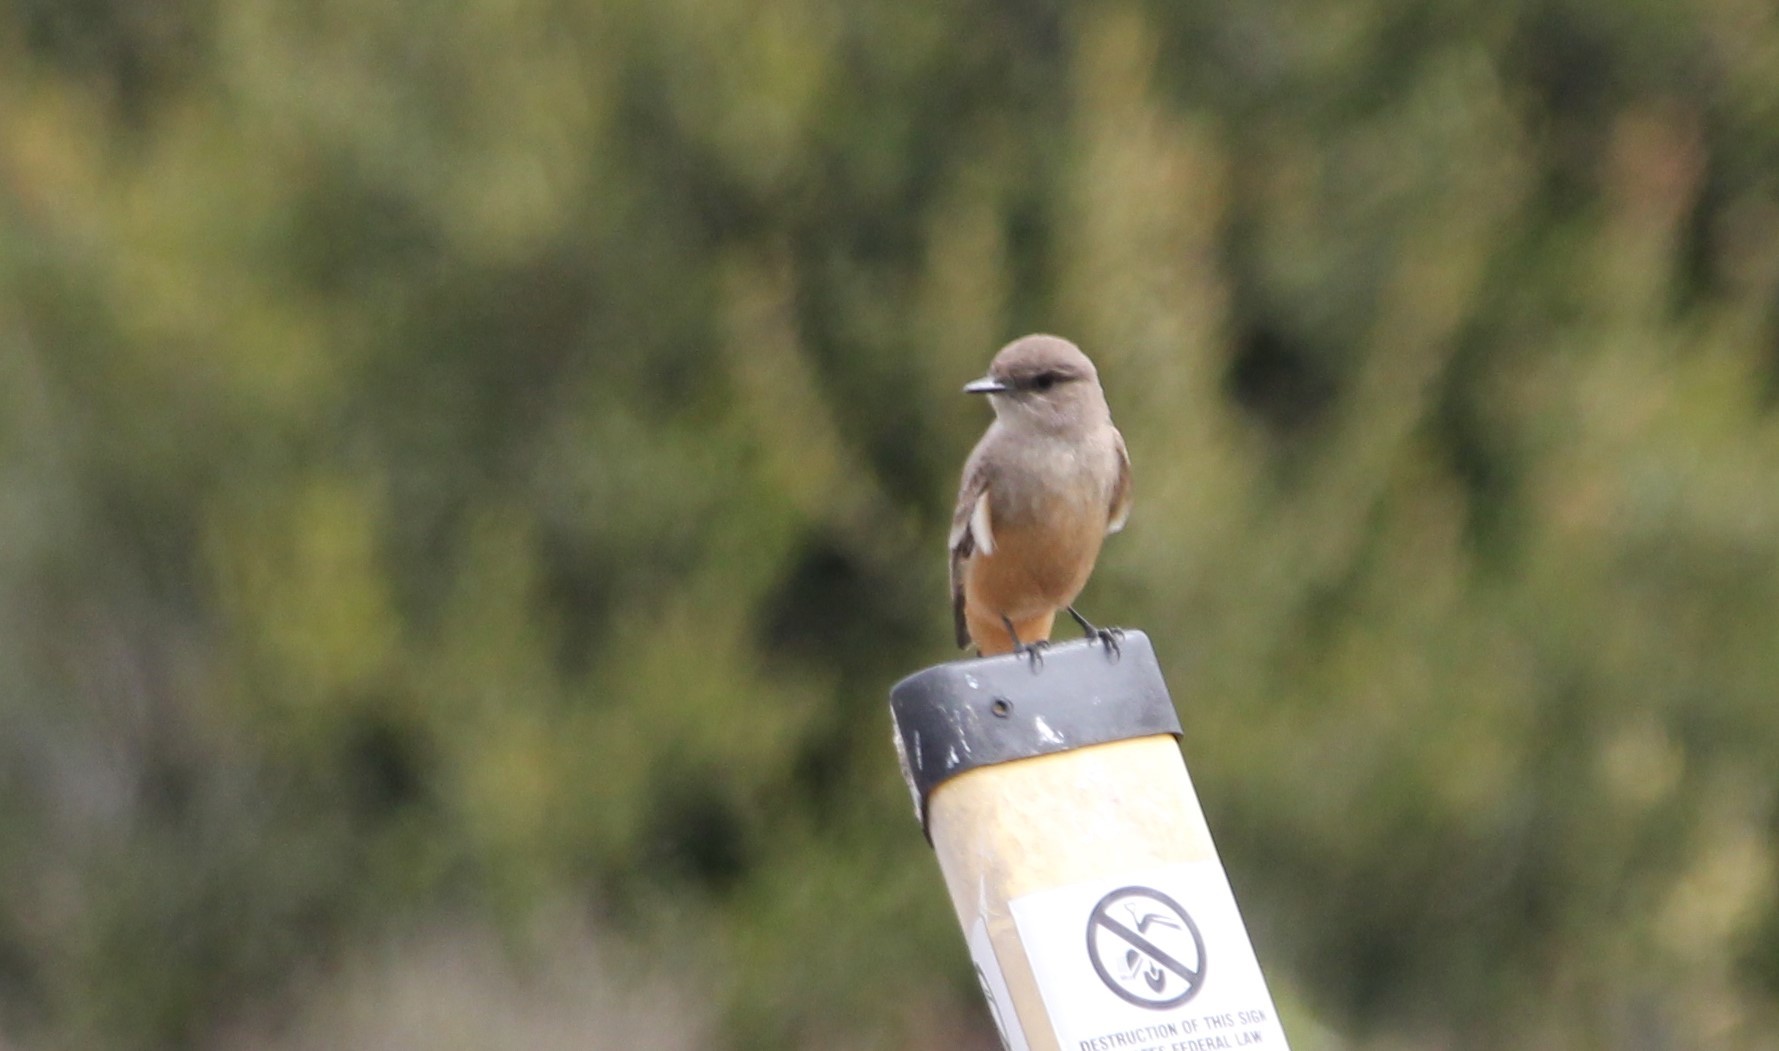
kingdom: Animalia
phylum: Chordata
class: Aves
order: Passeriformes
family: Tyrannidae
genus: Sayornis
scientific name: Sayornis saya
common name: Say's phoebe
